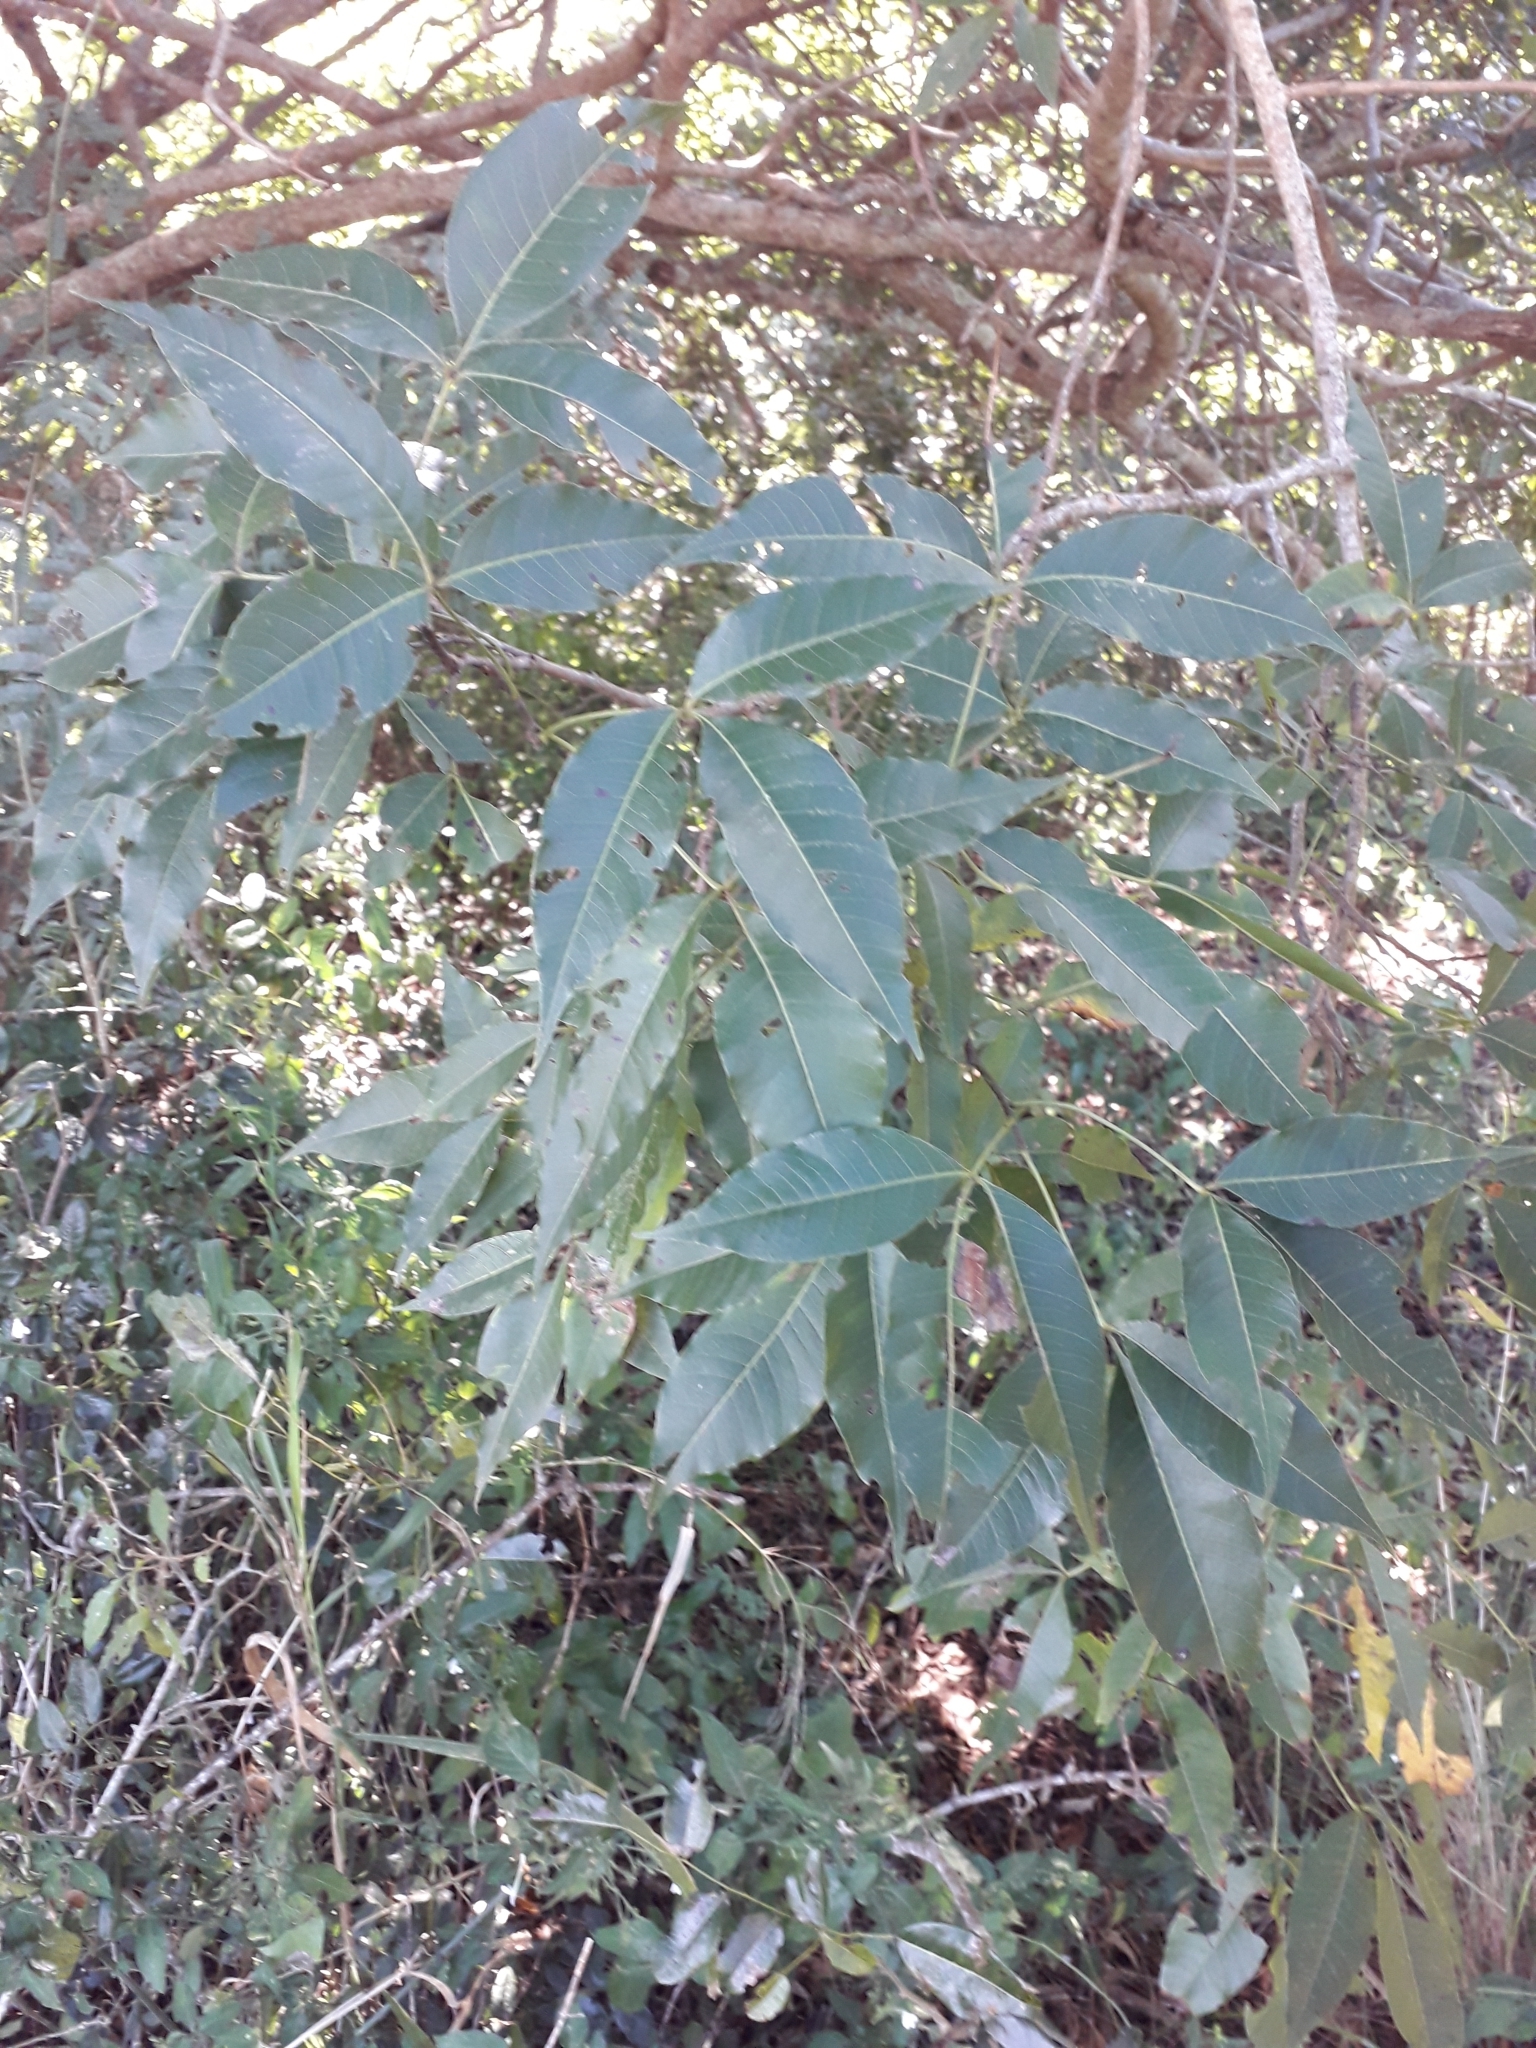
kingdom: Plantae
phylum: Tracheophyta
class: Magnoliopsida
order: Sapindales
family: Anacardiaceae
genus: Searsia
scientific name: Searsia chirindensis
